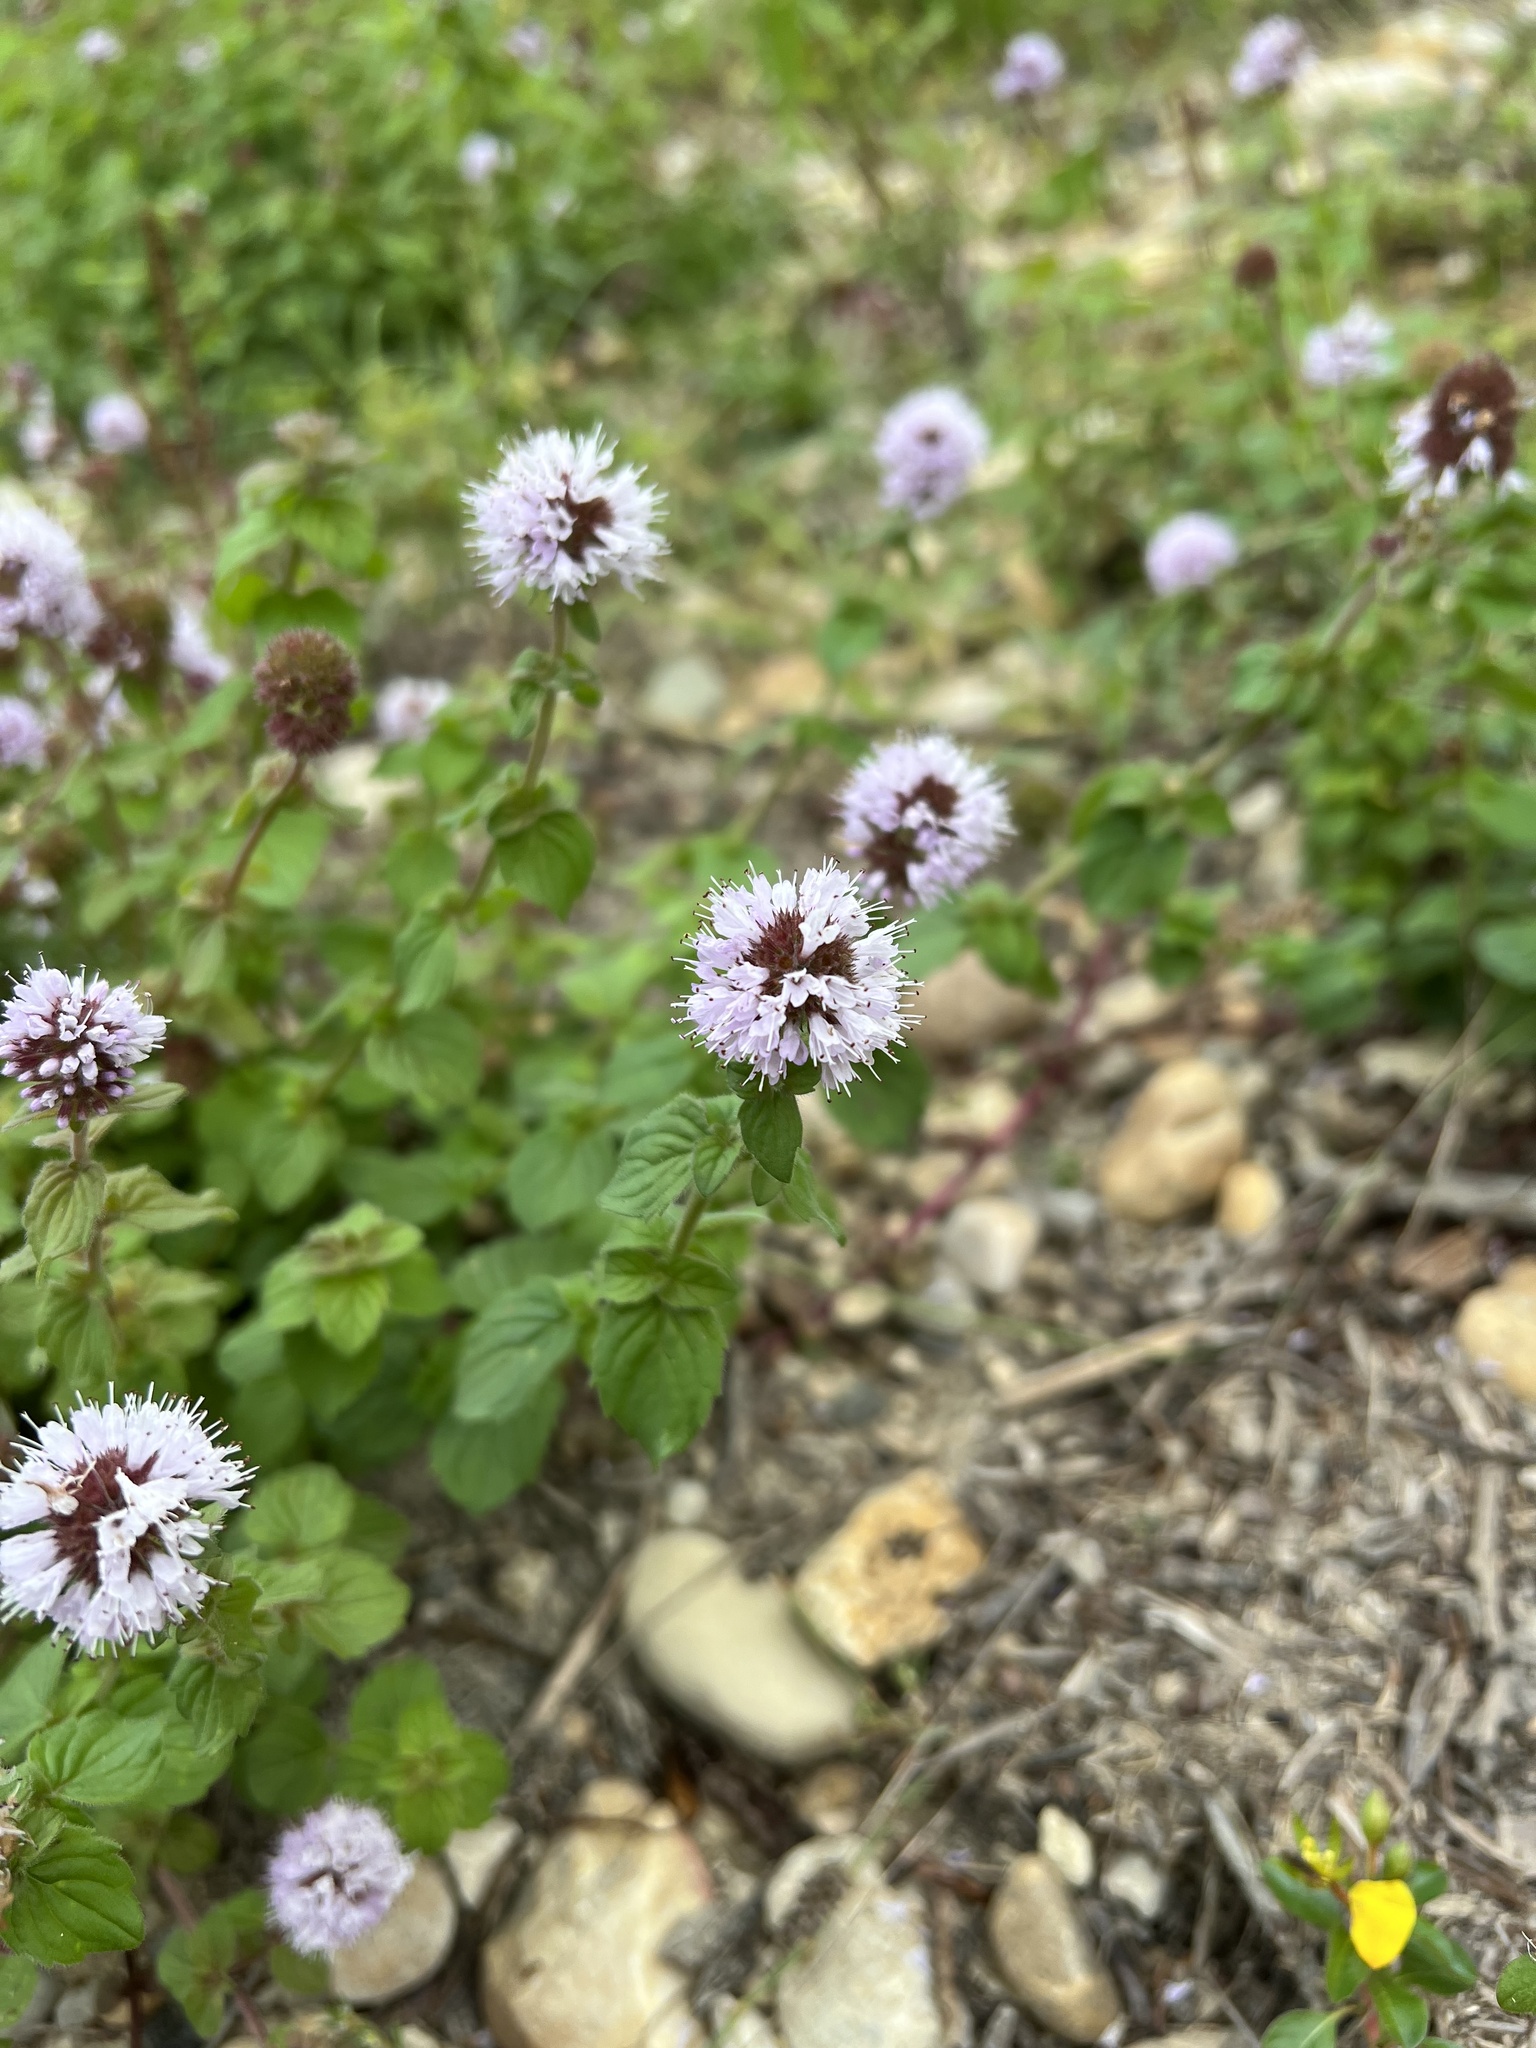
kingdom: Plantae
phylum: Tracheophyta
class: Magnoliopsida
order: Lamiales
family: Lamiaceae
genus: Mentha
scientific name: Mentha aquatica
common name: Water mint
